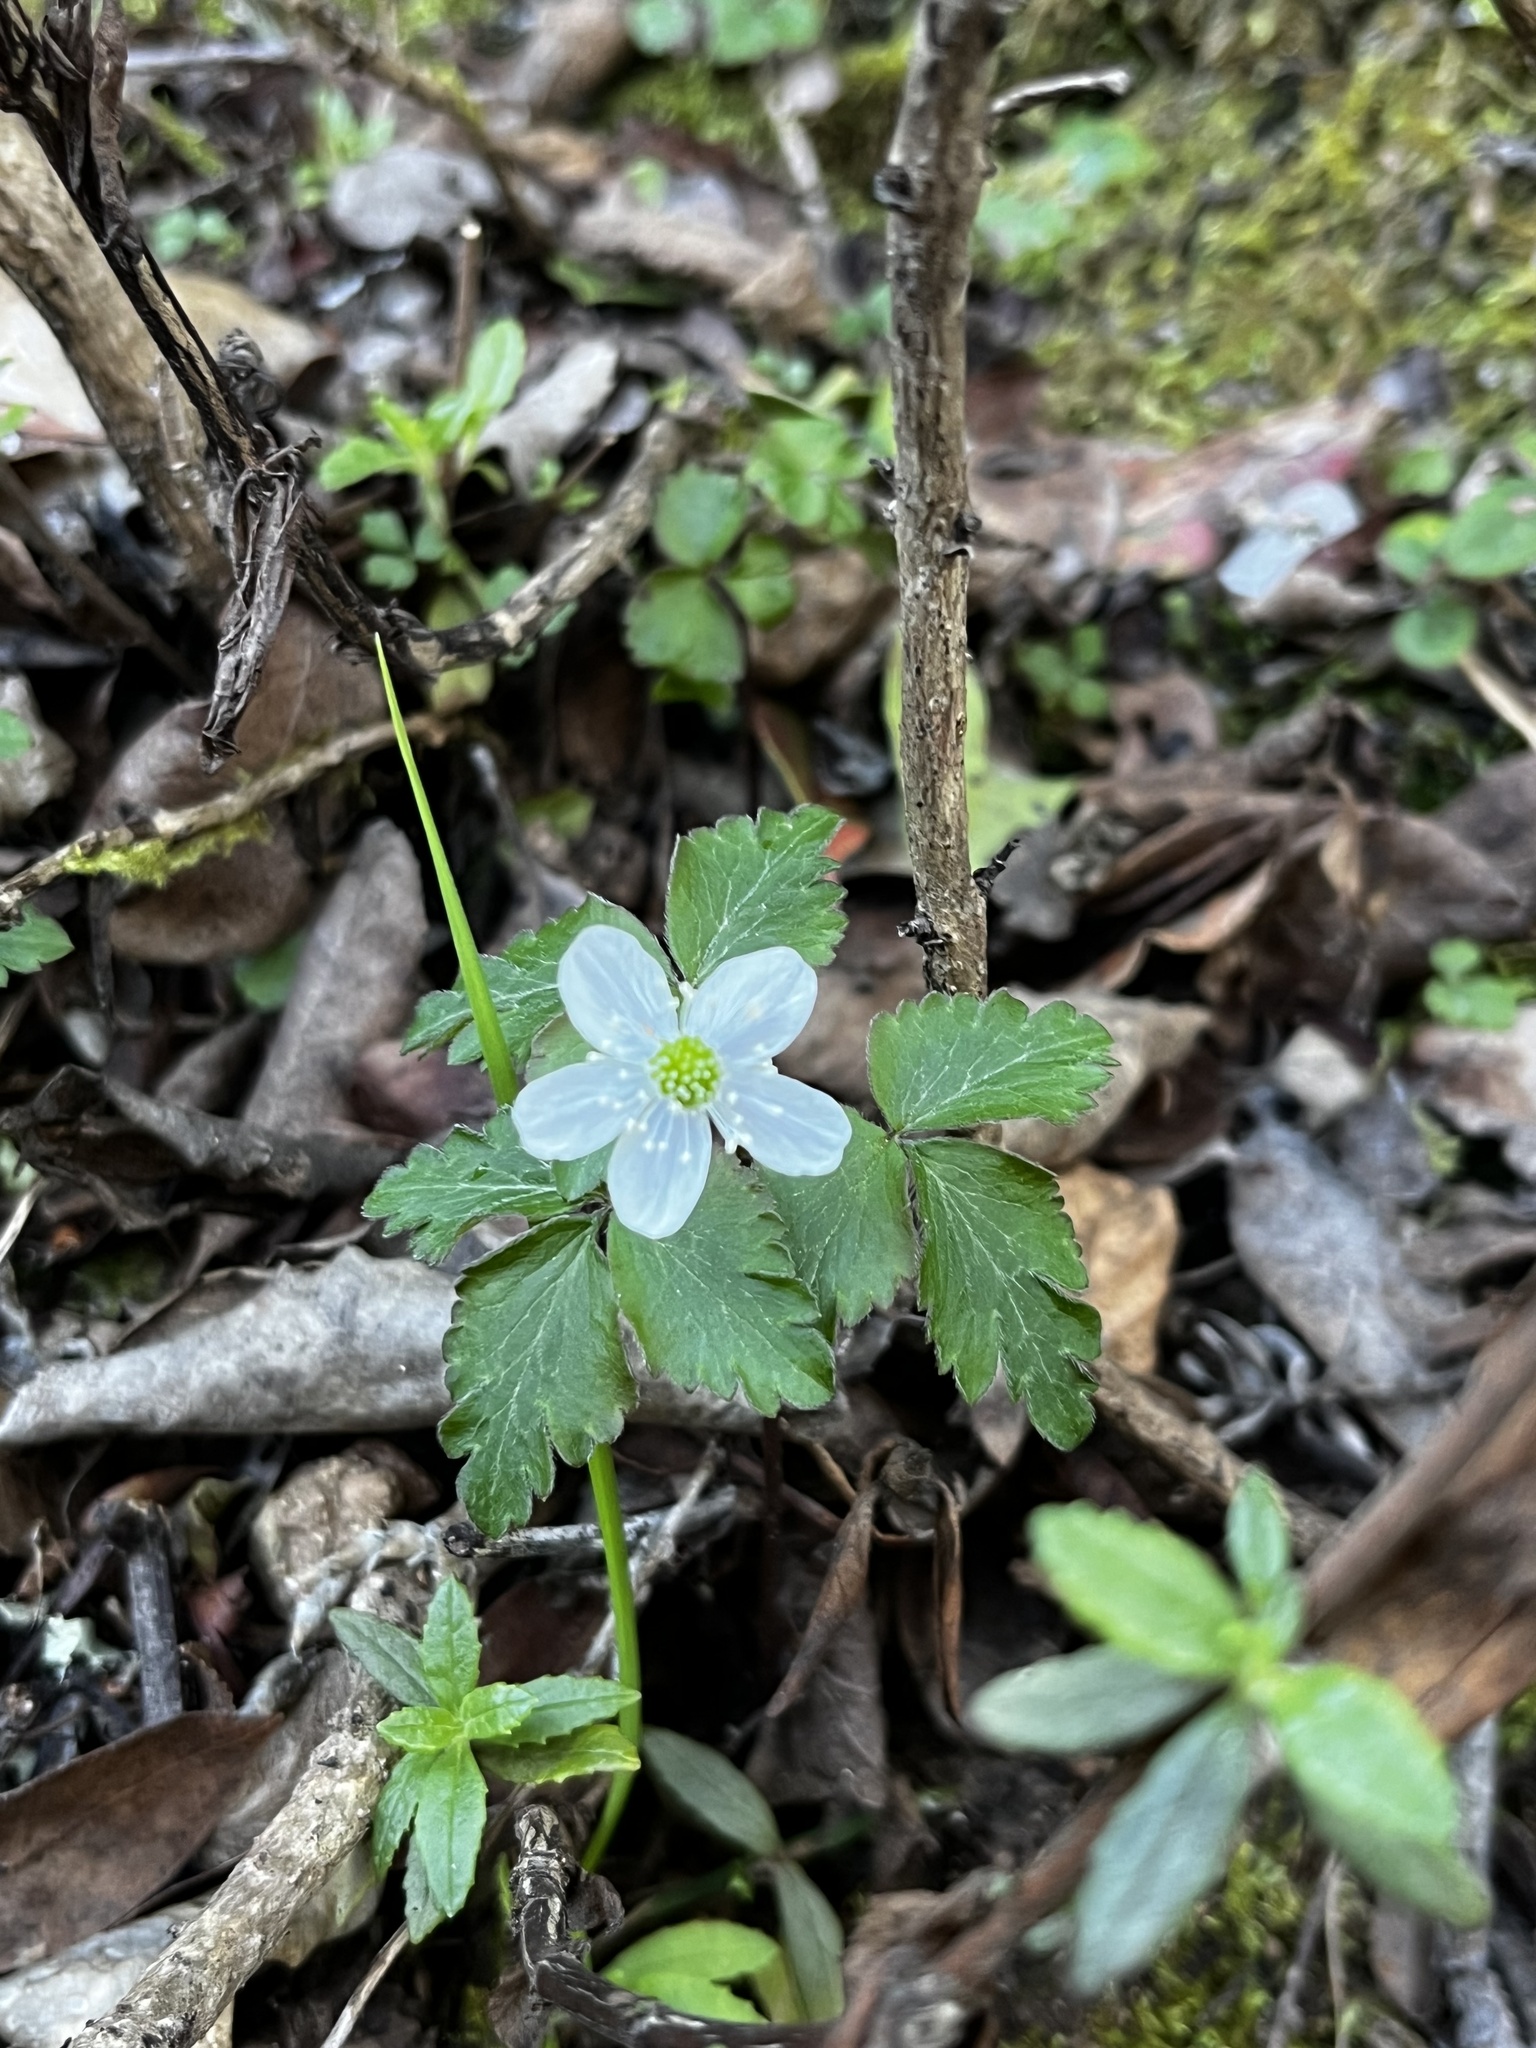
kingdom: Plantae
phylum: Tracheophyta
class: Magnoliopsida
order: Ranunculales
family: Ranunculaceae
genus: Anemone
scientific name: Anemone
